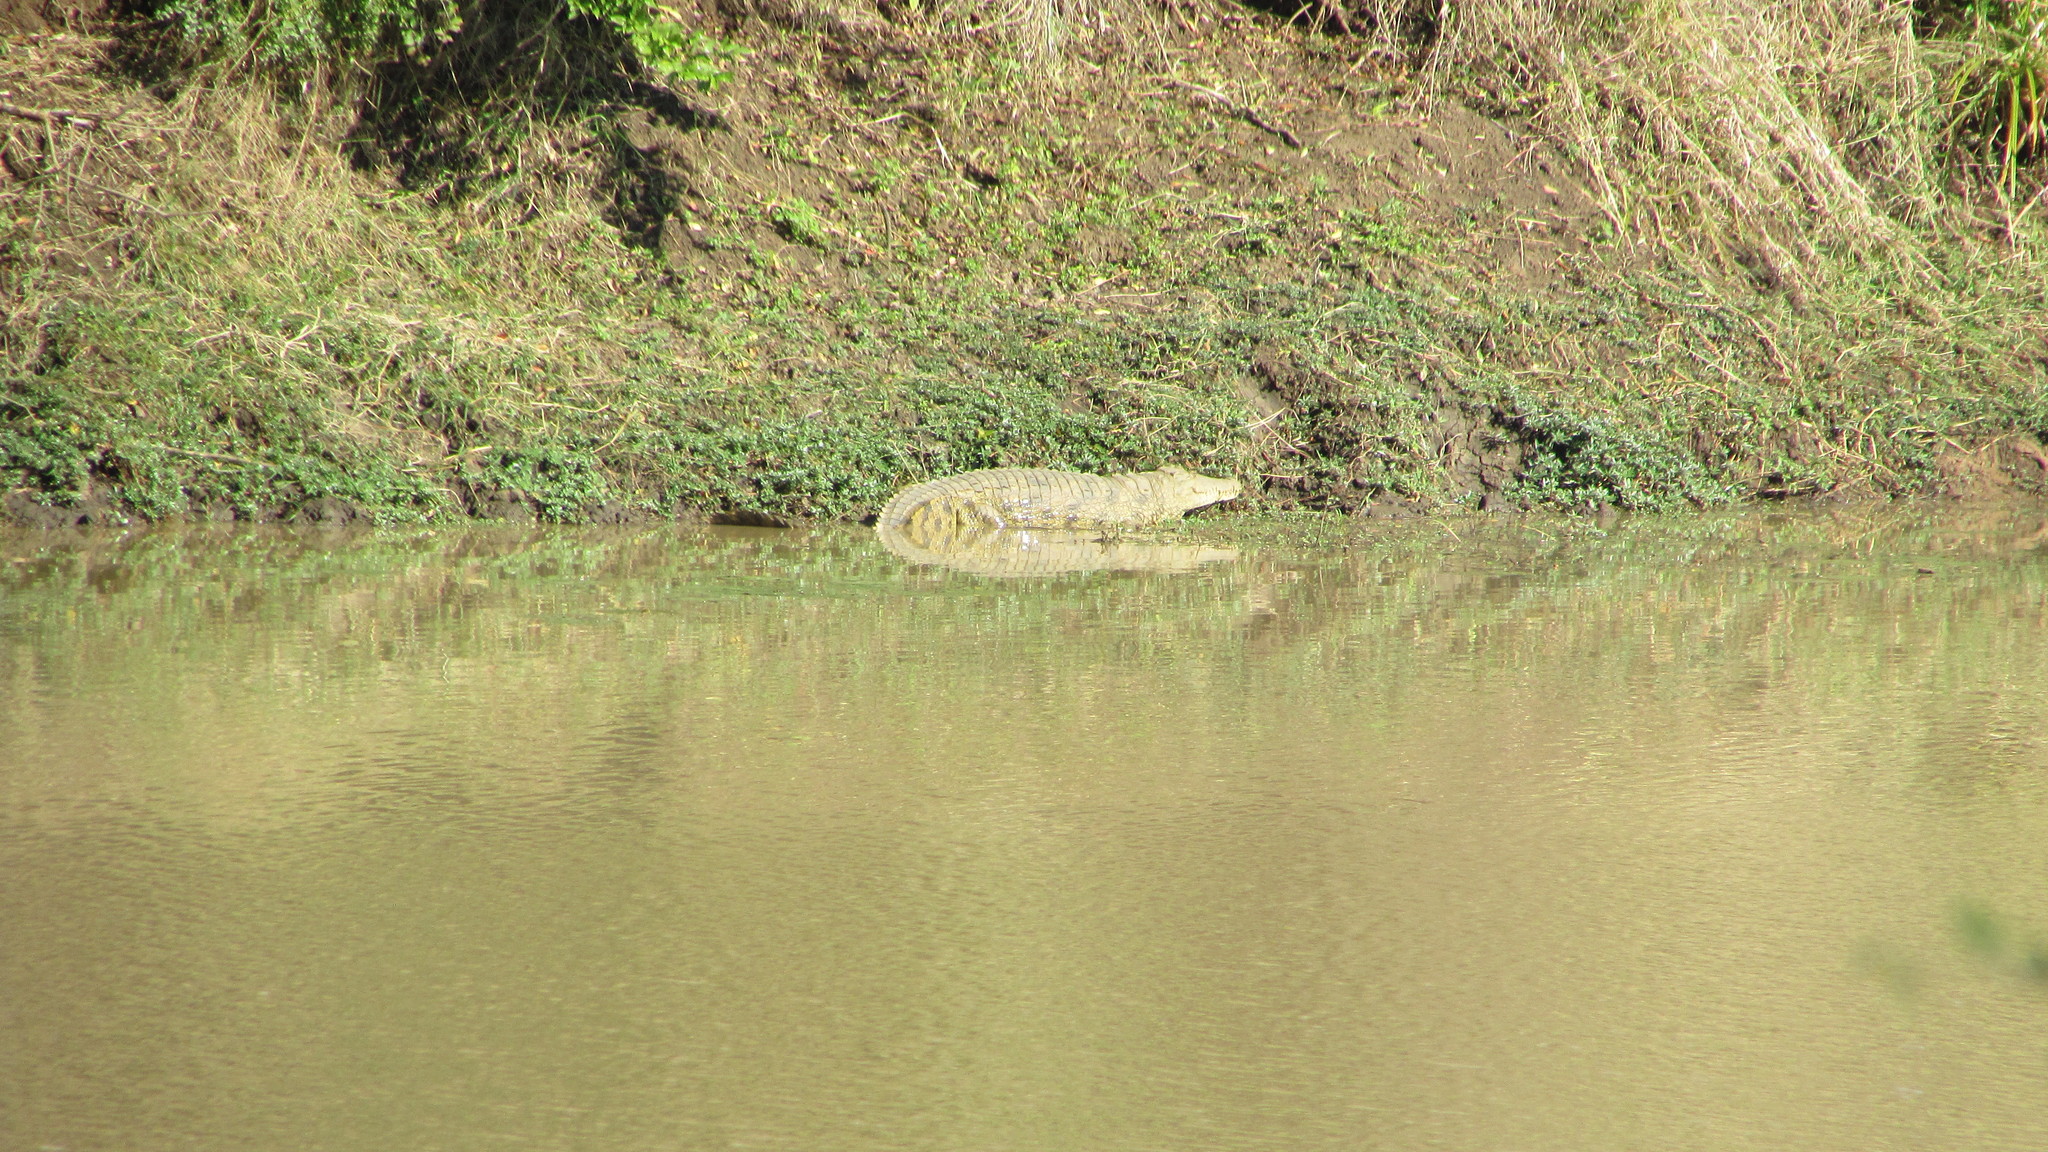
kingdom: Animalia
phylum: Chordata
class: Crocodylia
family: Crocodylidae
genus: Crocodylus
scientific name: Crocodylus niloticus
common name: Nile crocodile
